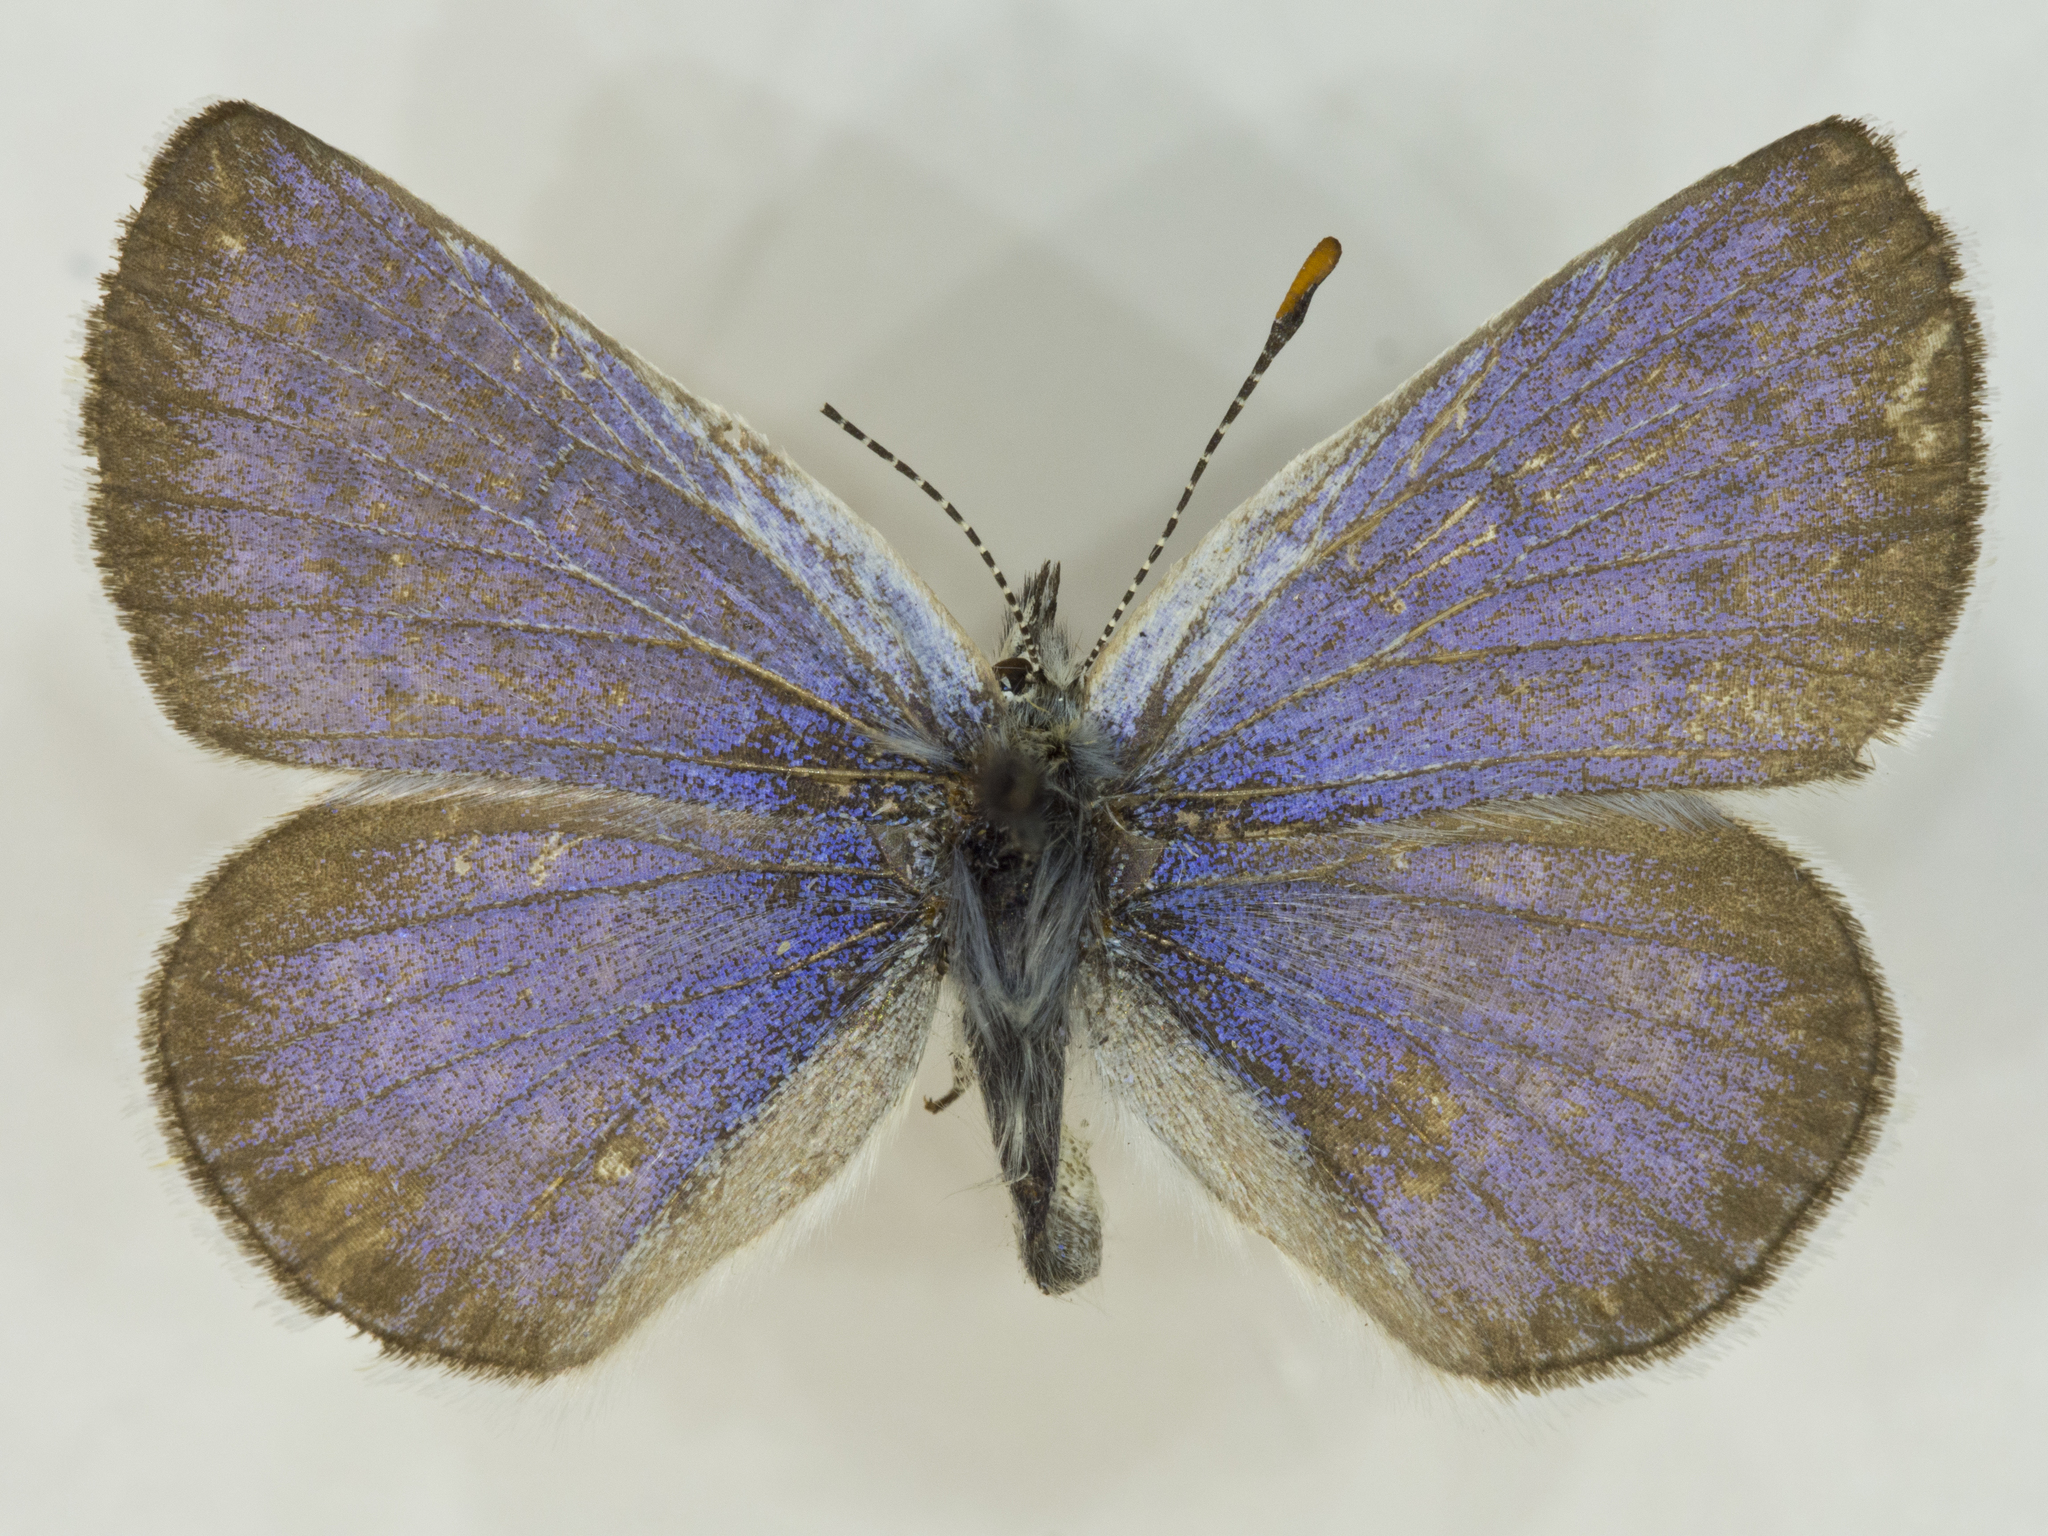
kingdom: Animalia
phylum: Arthropoda
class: Insecta
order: Lepidoptera
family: Lycaenidae
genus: Icaricia
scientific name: Icaricia icarioides
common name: Boisduval's blue
